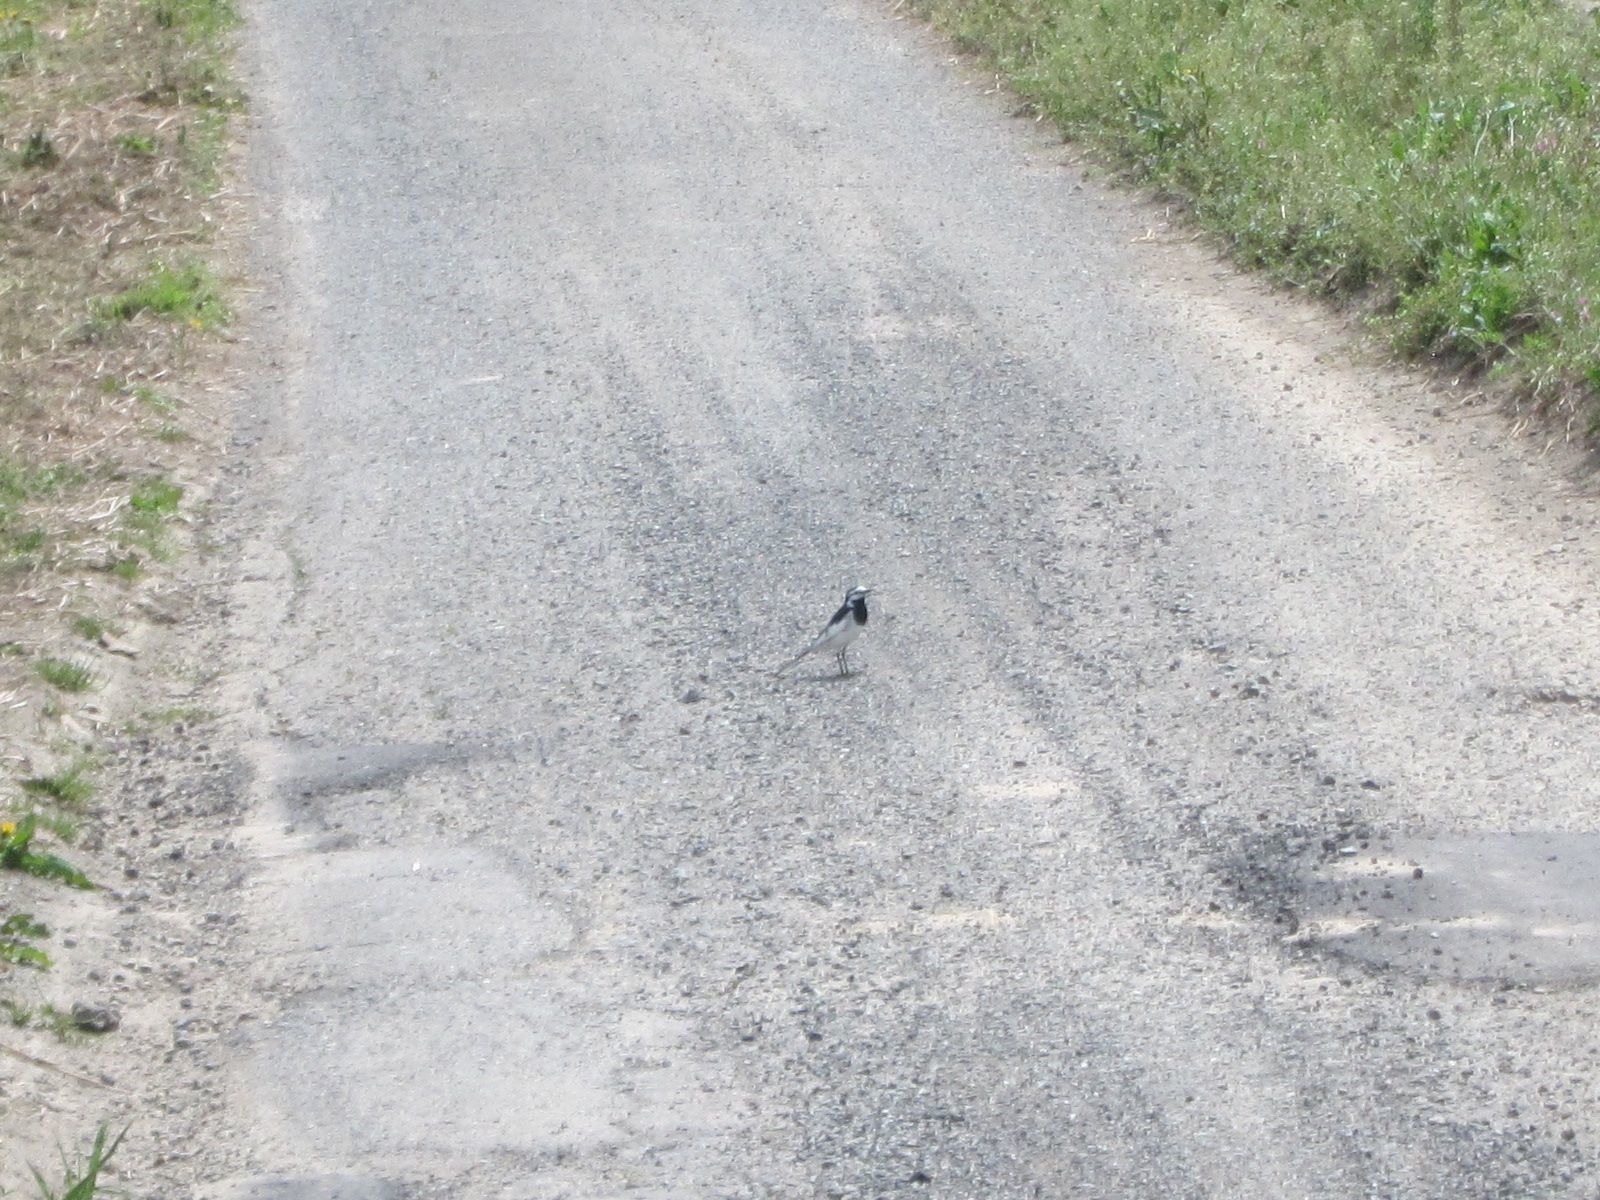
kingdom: Animalia
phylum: Chordata
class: Aves
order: Passeriformes
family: Motacillidae
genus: Motacilla
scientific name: Motacilla alba
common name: White wagtail
